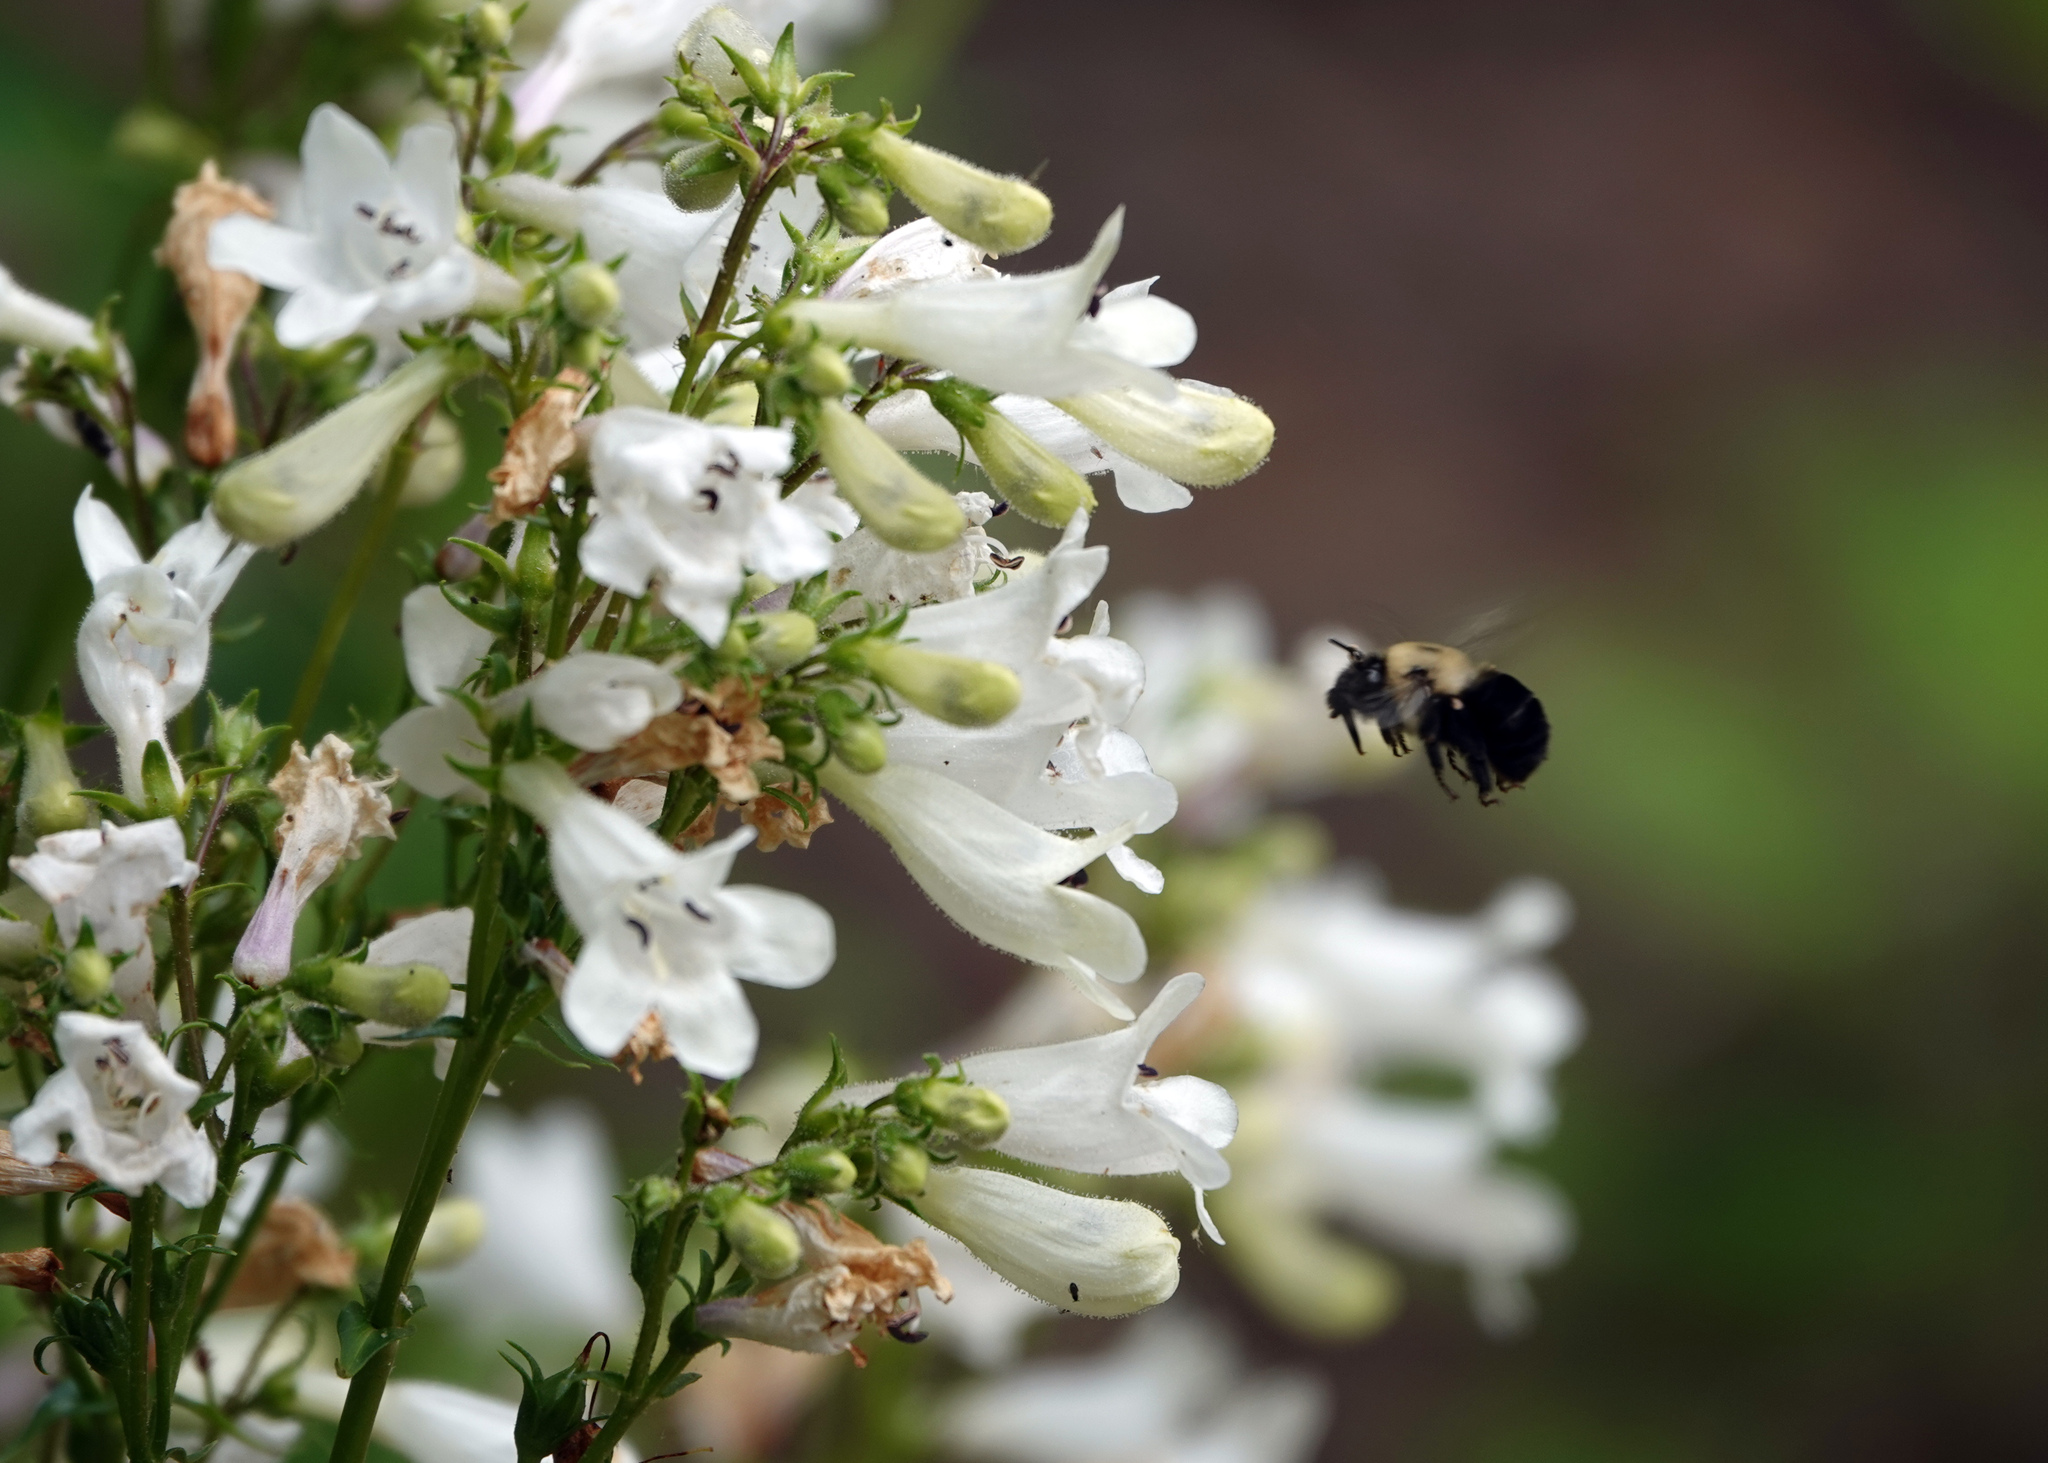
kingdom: Animalia
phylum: Arthropoda
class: Insecta
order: Hymenoptera
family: Apidae
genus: Anthophora
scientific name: Anthophora abrupta
